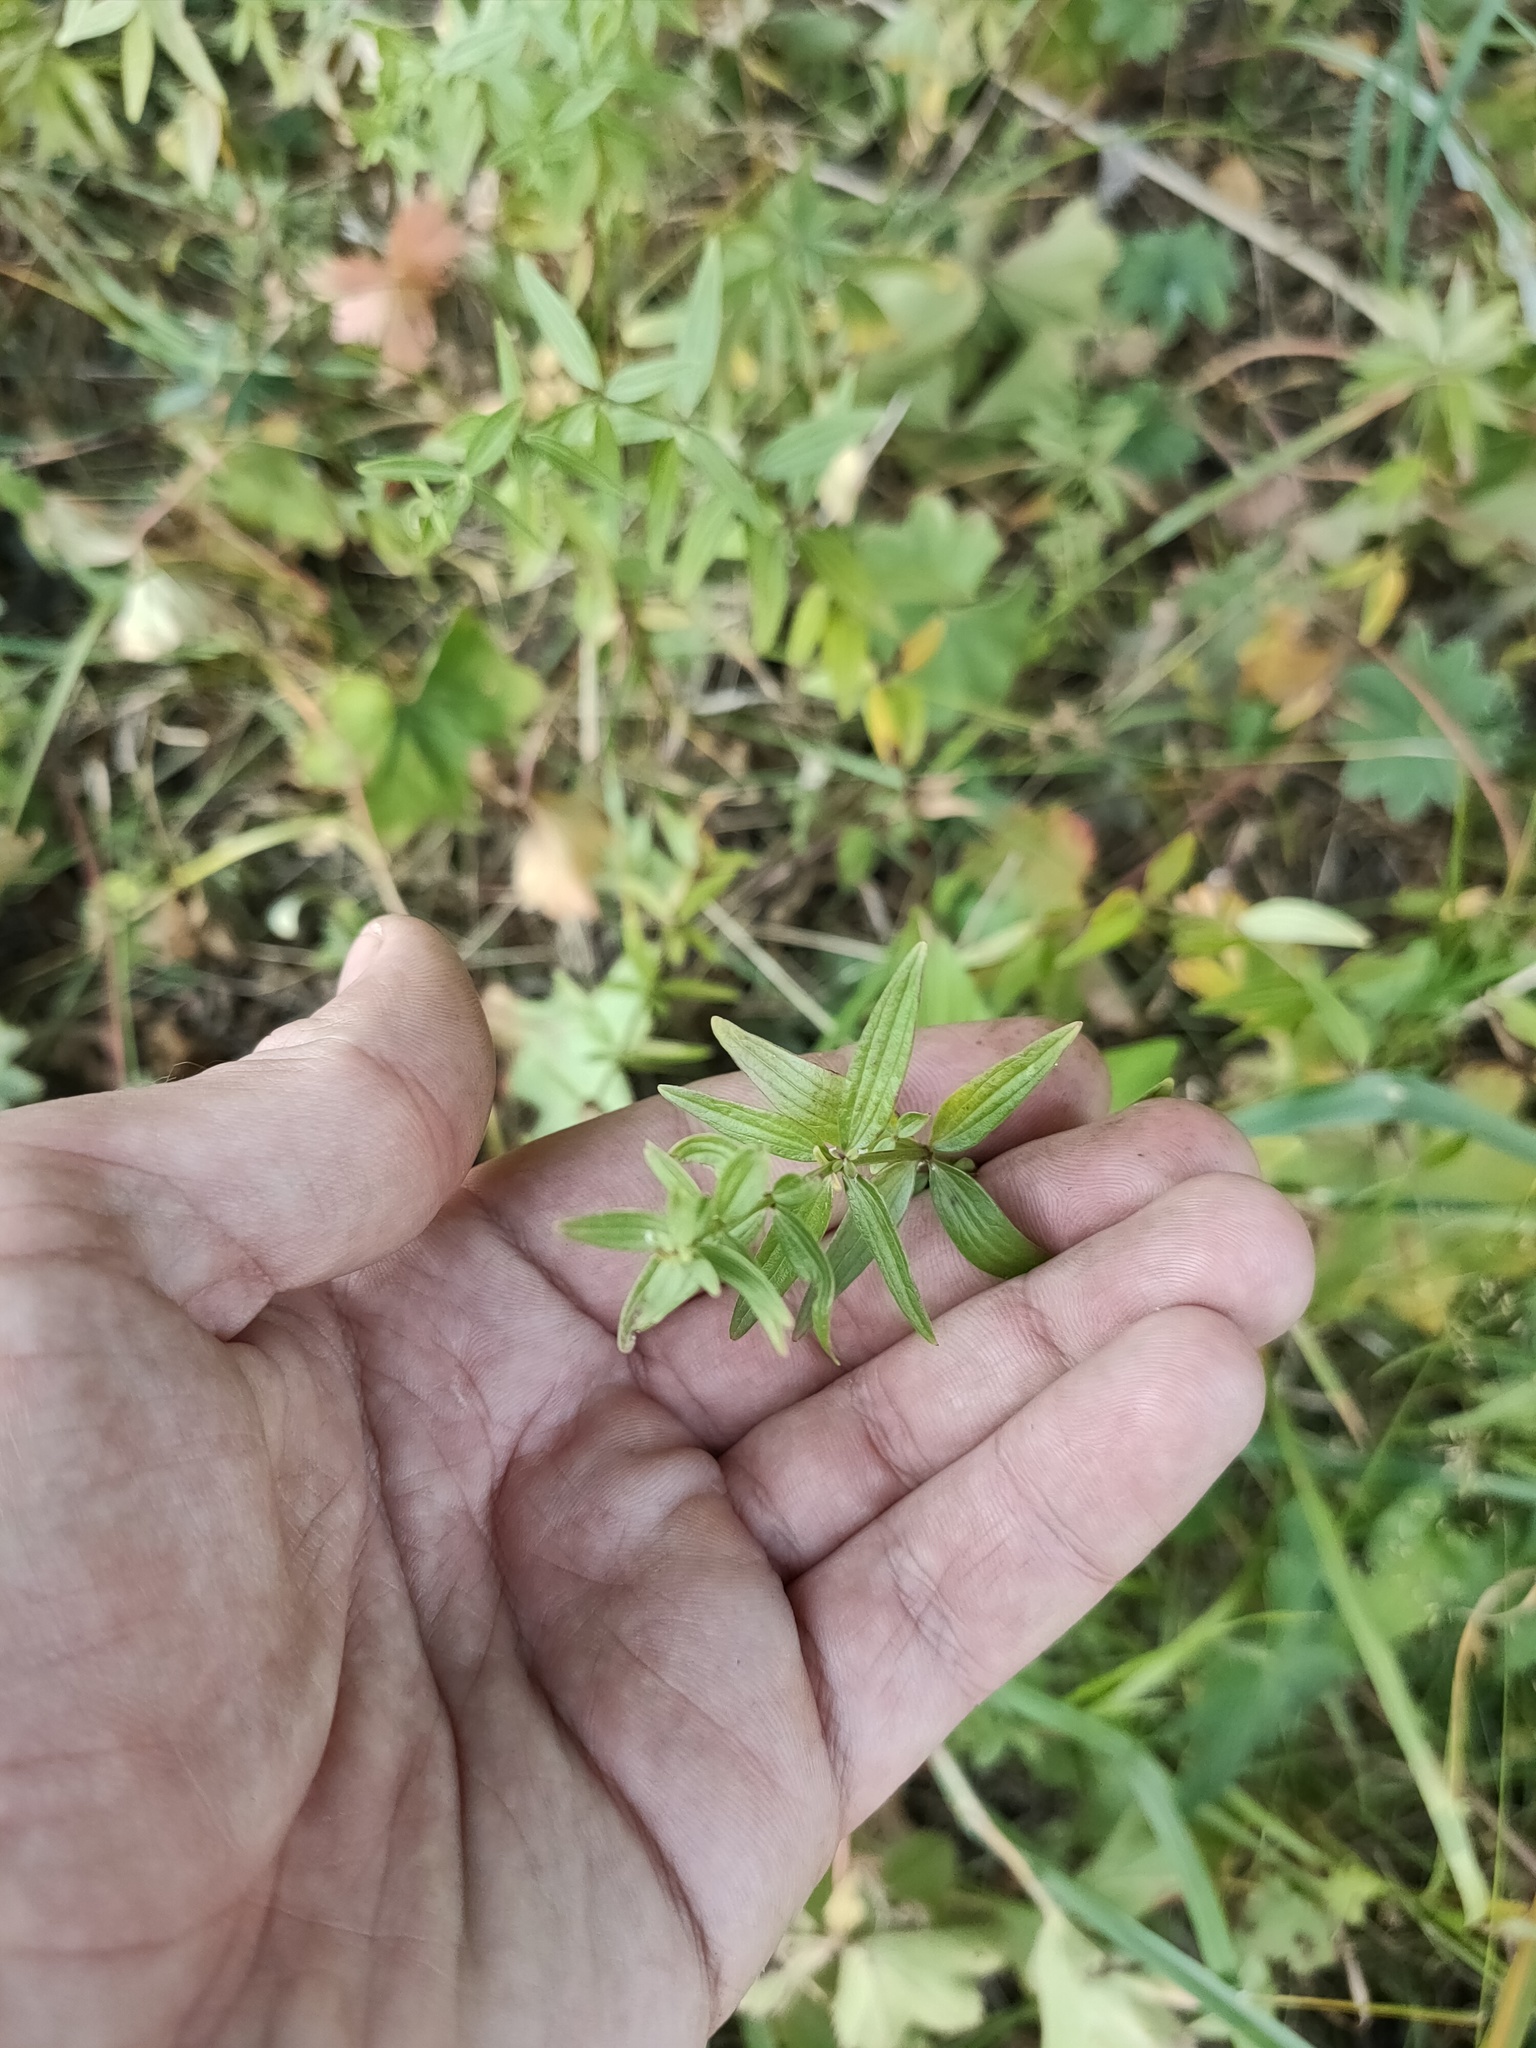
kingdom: Plantae
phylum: Tracheophyta
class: Magnoliopsida
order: Gentianales
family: Rubiaceae
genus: Galium
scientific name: Galium boreale
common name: Northern bedstraw
